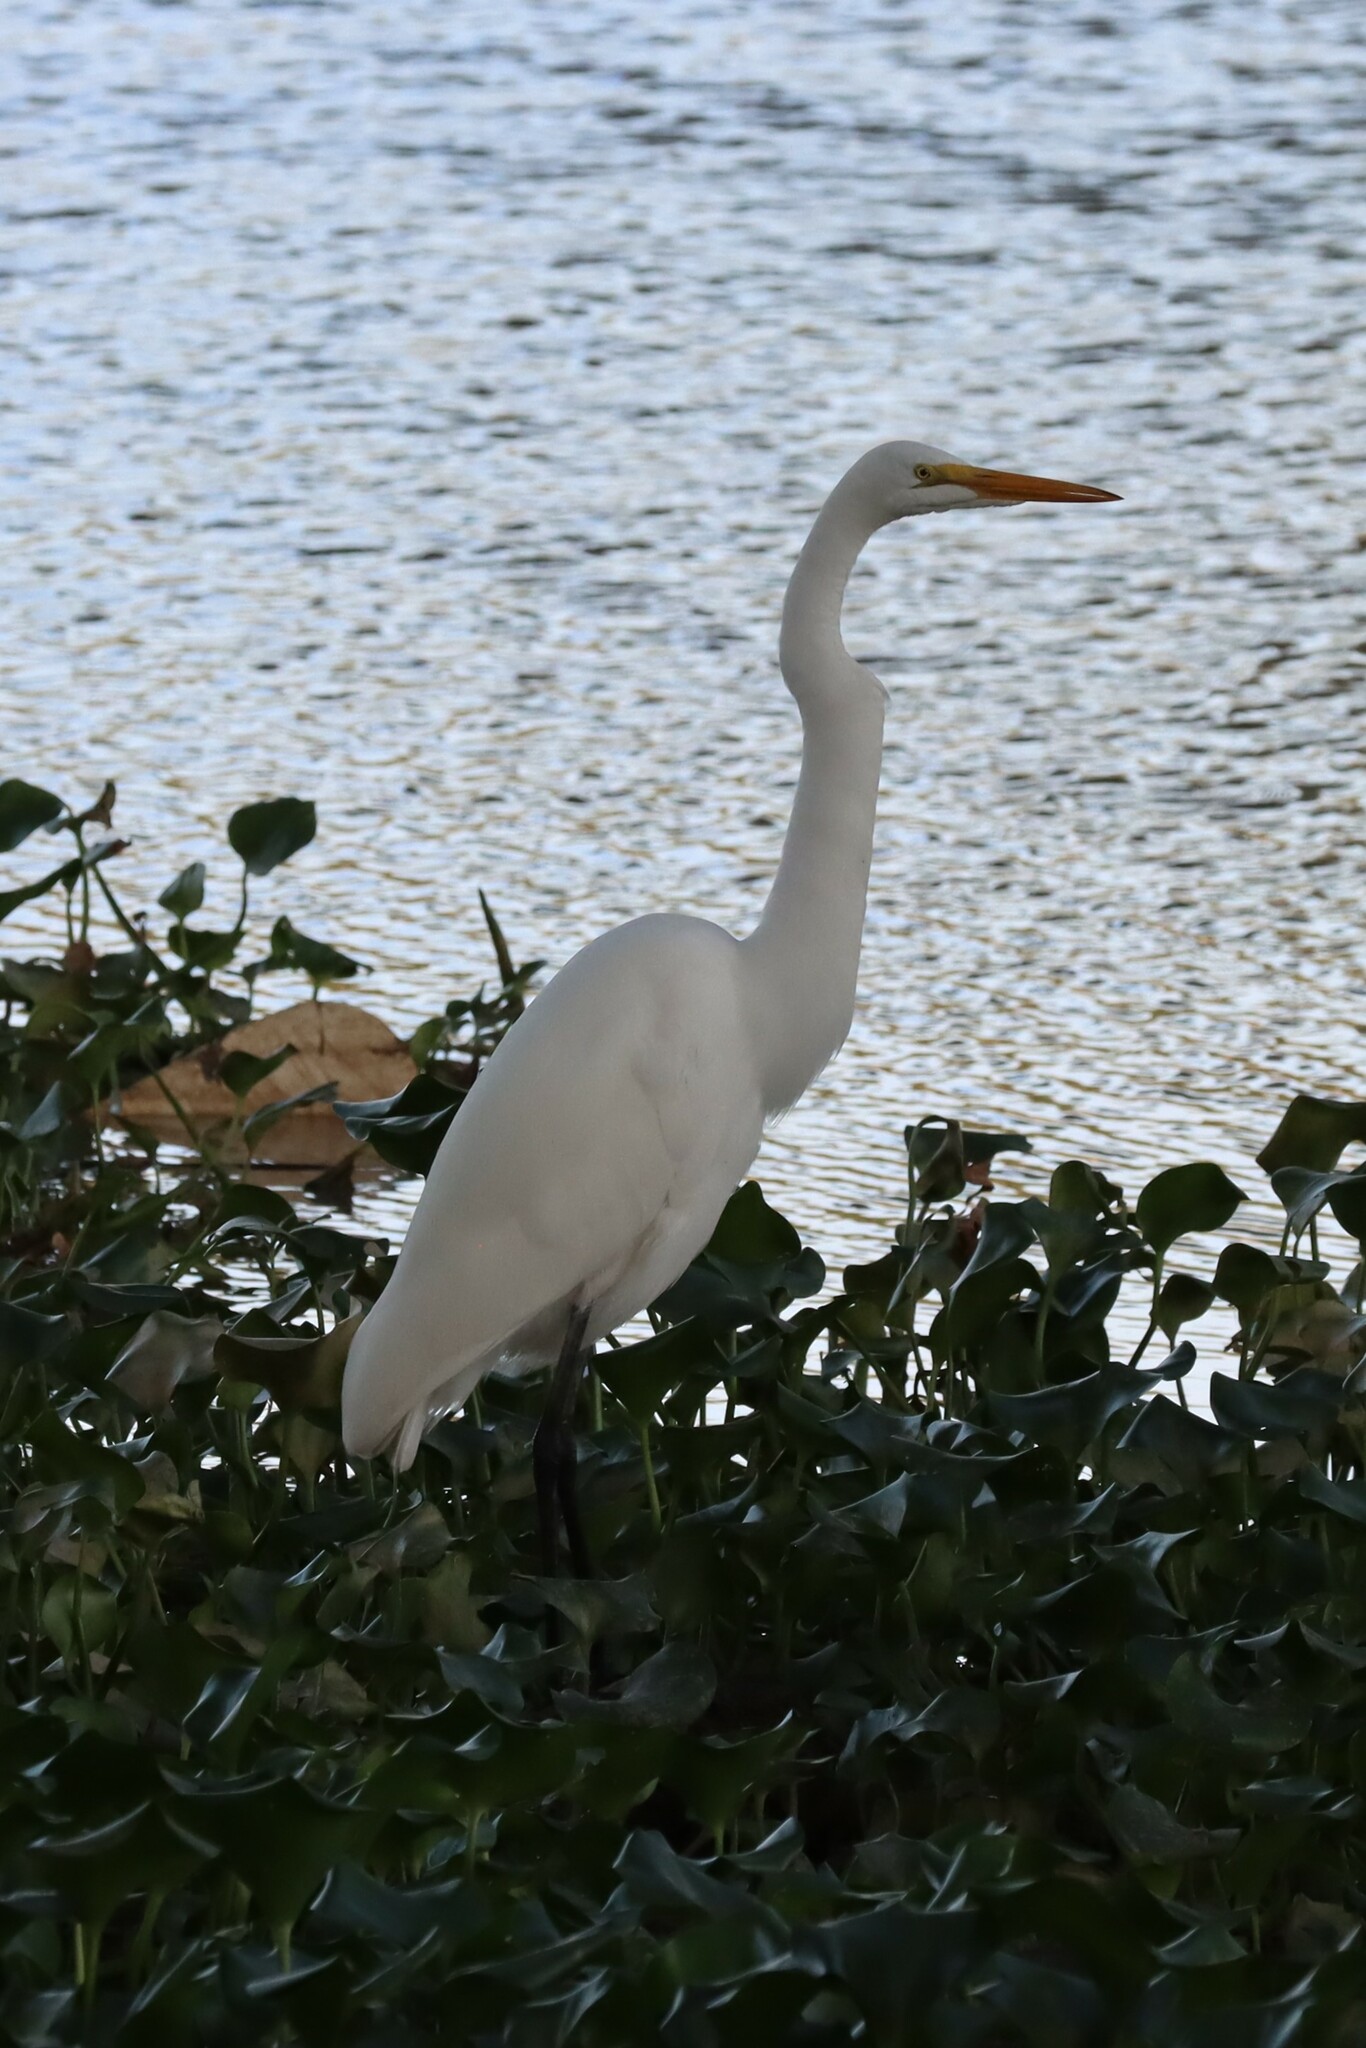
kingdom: Animalia
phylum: Chordata
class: Aves
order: Pelecaniformes
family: Ardeidae
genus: Ardea
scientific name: Ardea alba
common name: Great egret
